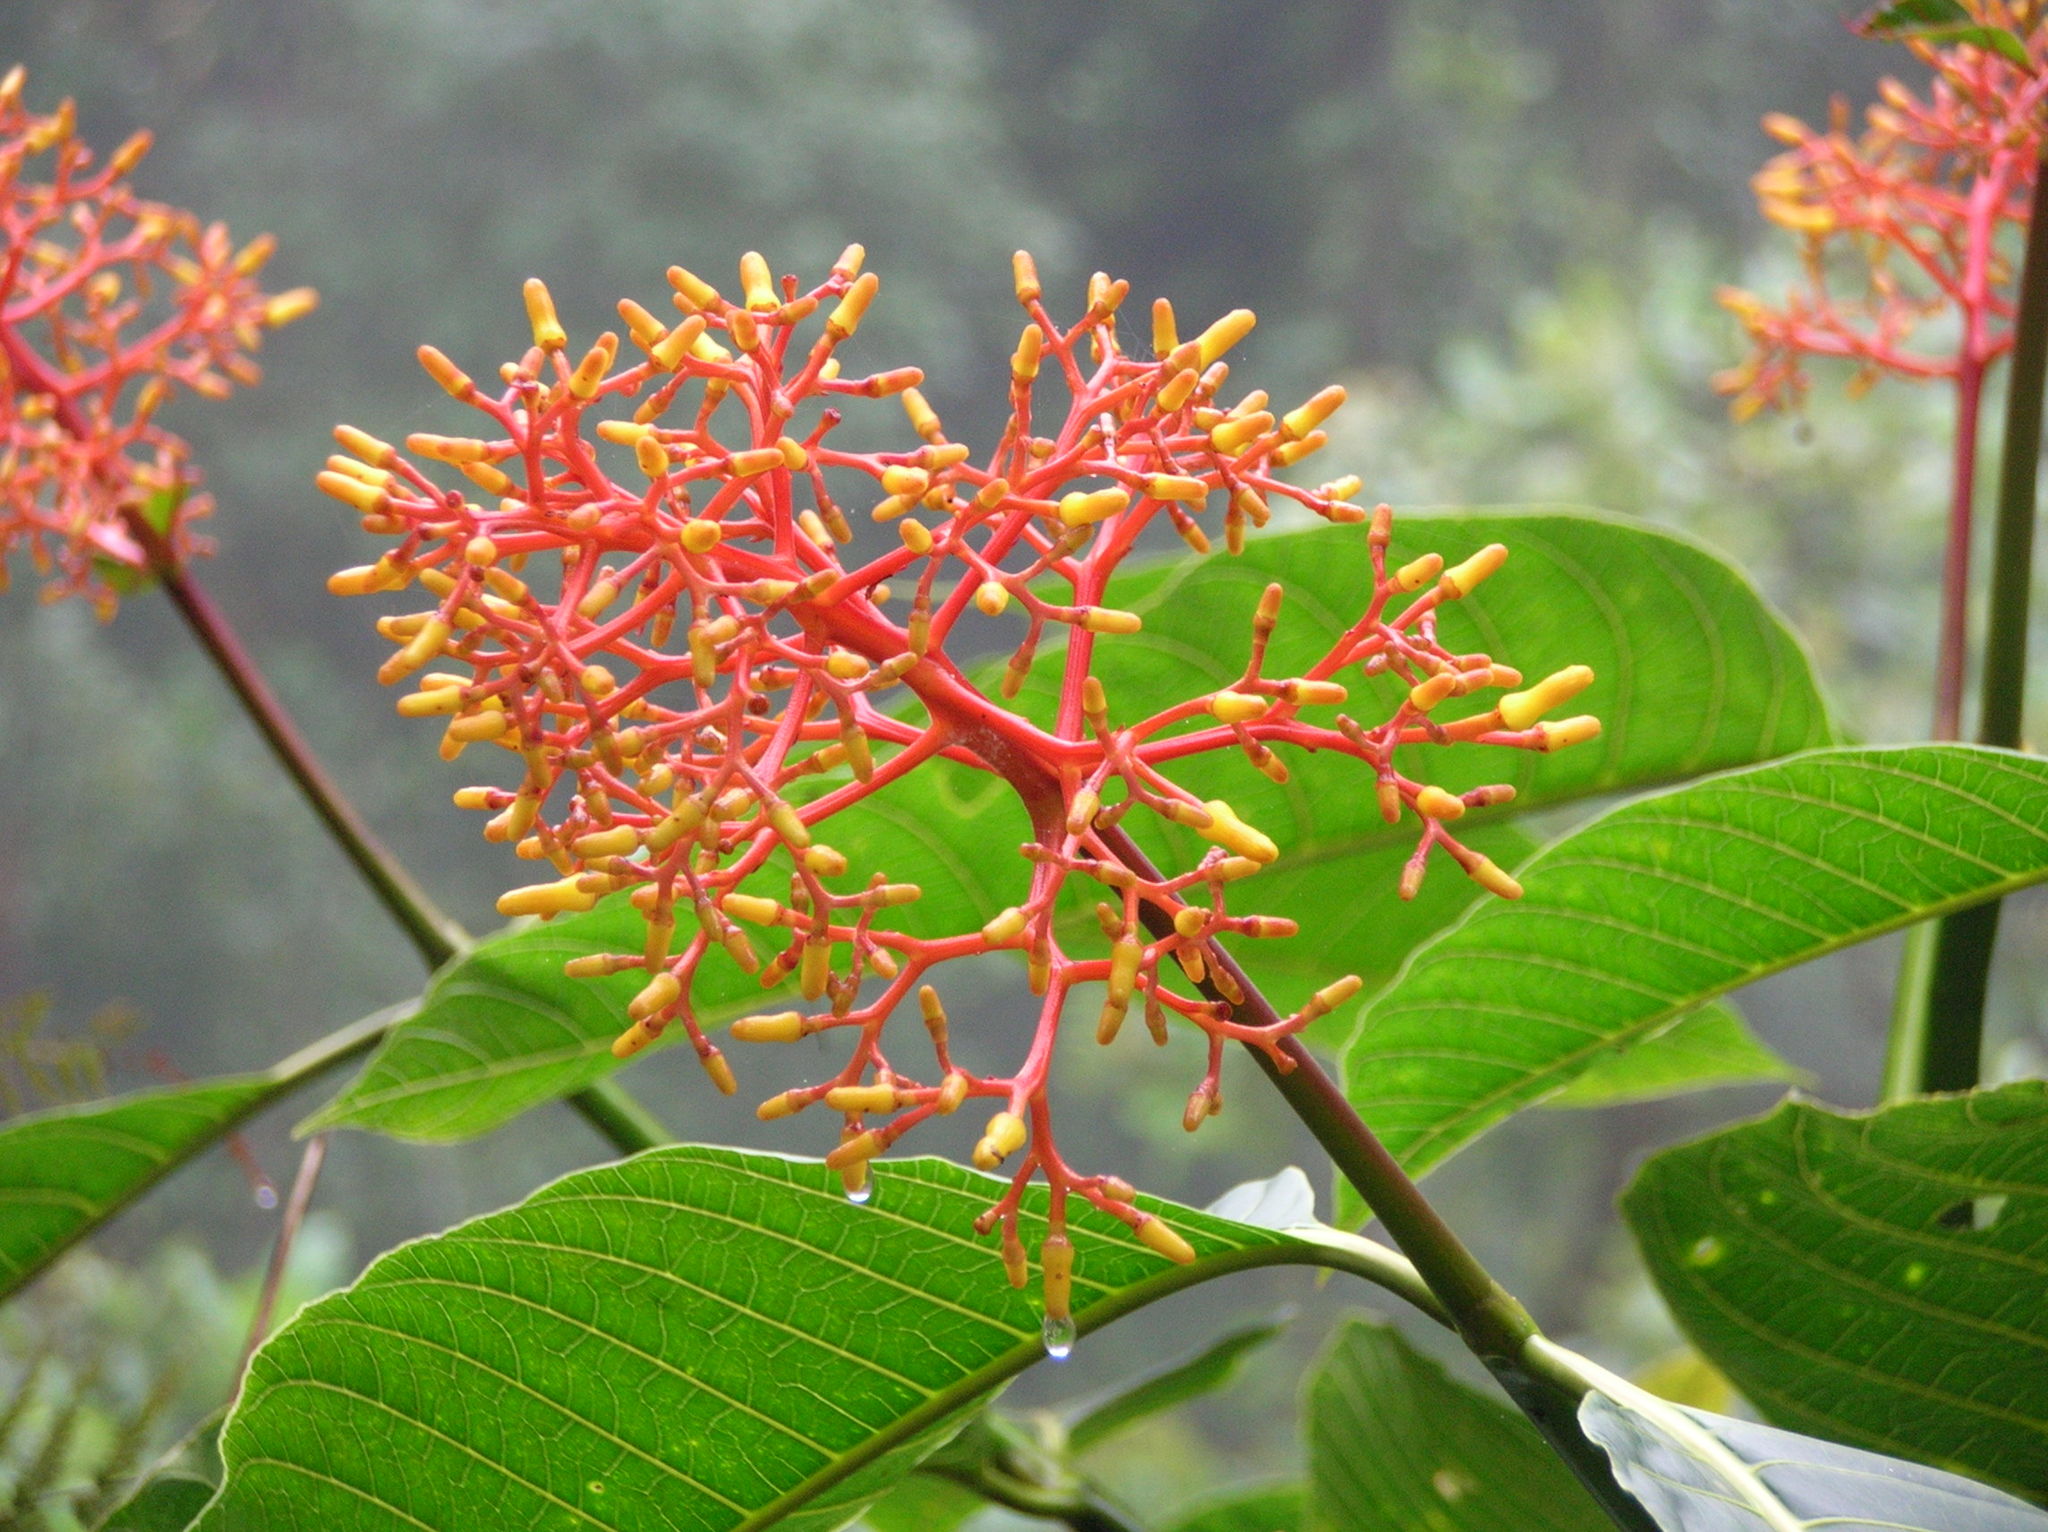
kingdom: Plantae
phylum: Tracheophyta
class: Magnoliopsida
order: Gentianales
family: Rubiaceae
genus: Palicourea
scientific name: Palicourea guianensis
